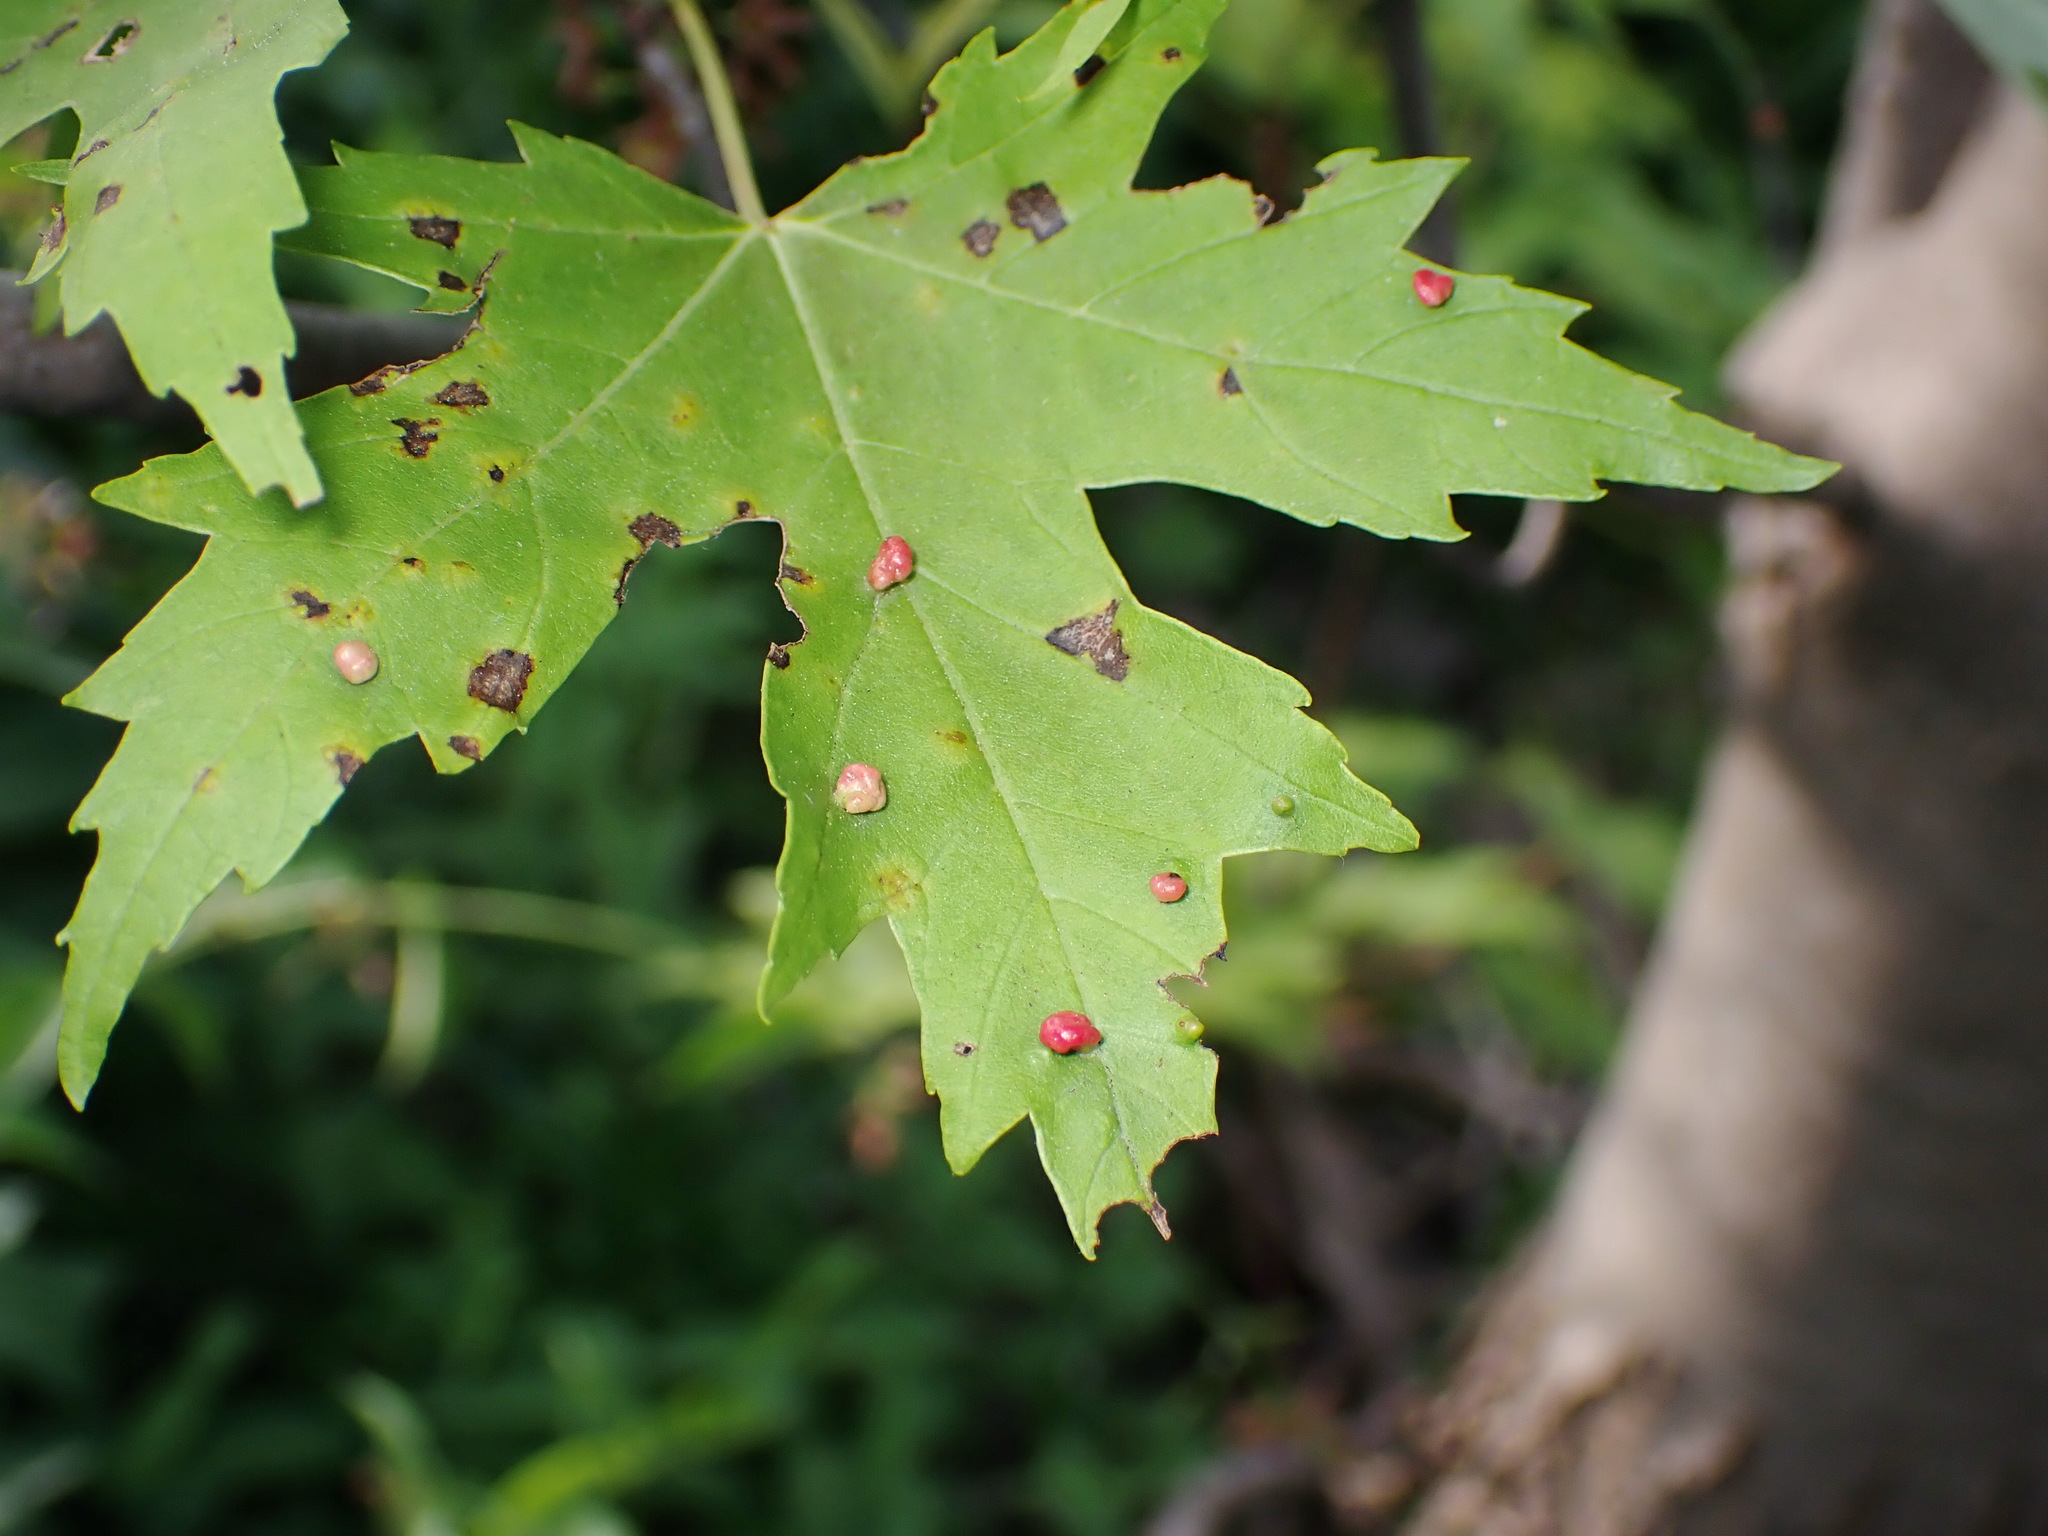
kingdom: Animalia
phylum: Arthropoda
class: Arachnida
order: Trombidiformes
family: Eriophyidae
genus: Vasates
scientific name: Vasates quadripedes
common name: Maple bladder gall mite
